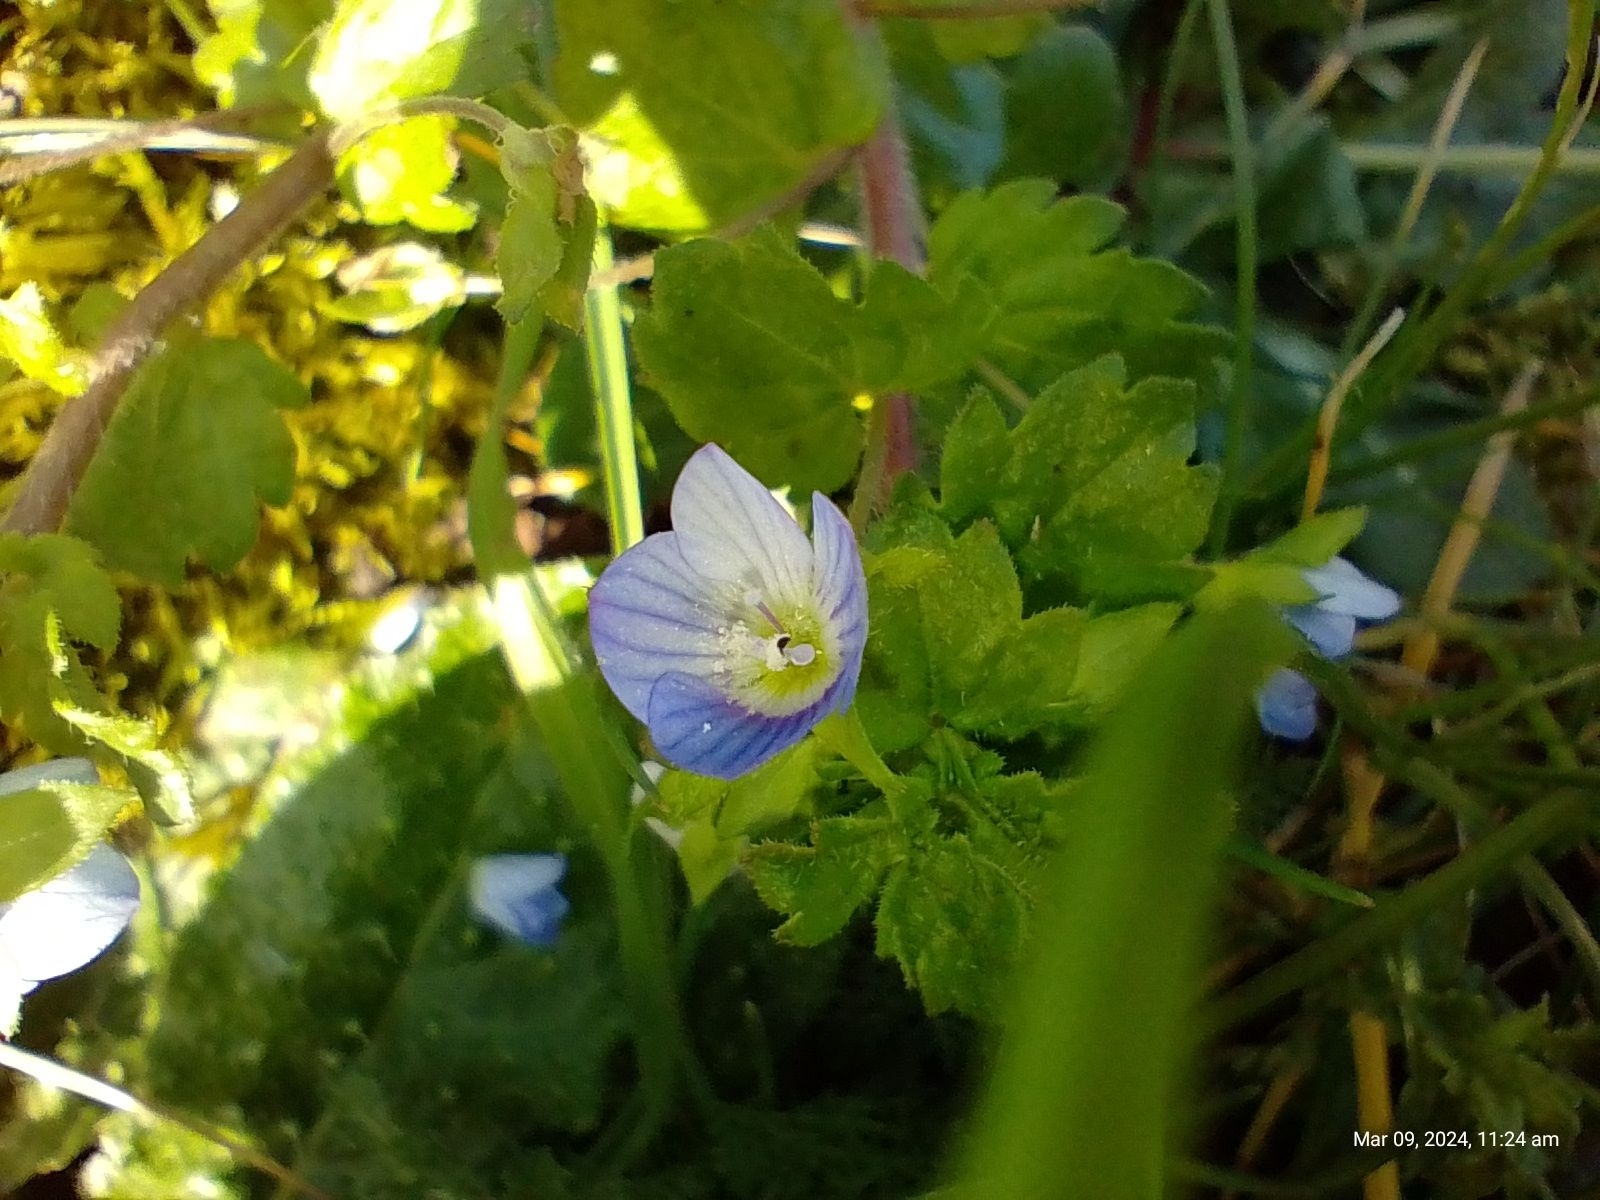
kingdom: Plantae
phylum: Tracheophyta
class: Magnoliopsida
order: Lamiales
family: Plantaginaceae
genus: Veronica
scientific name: Veronica persica
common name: Common field-speedwell
